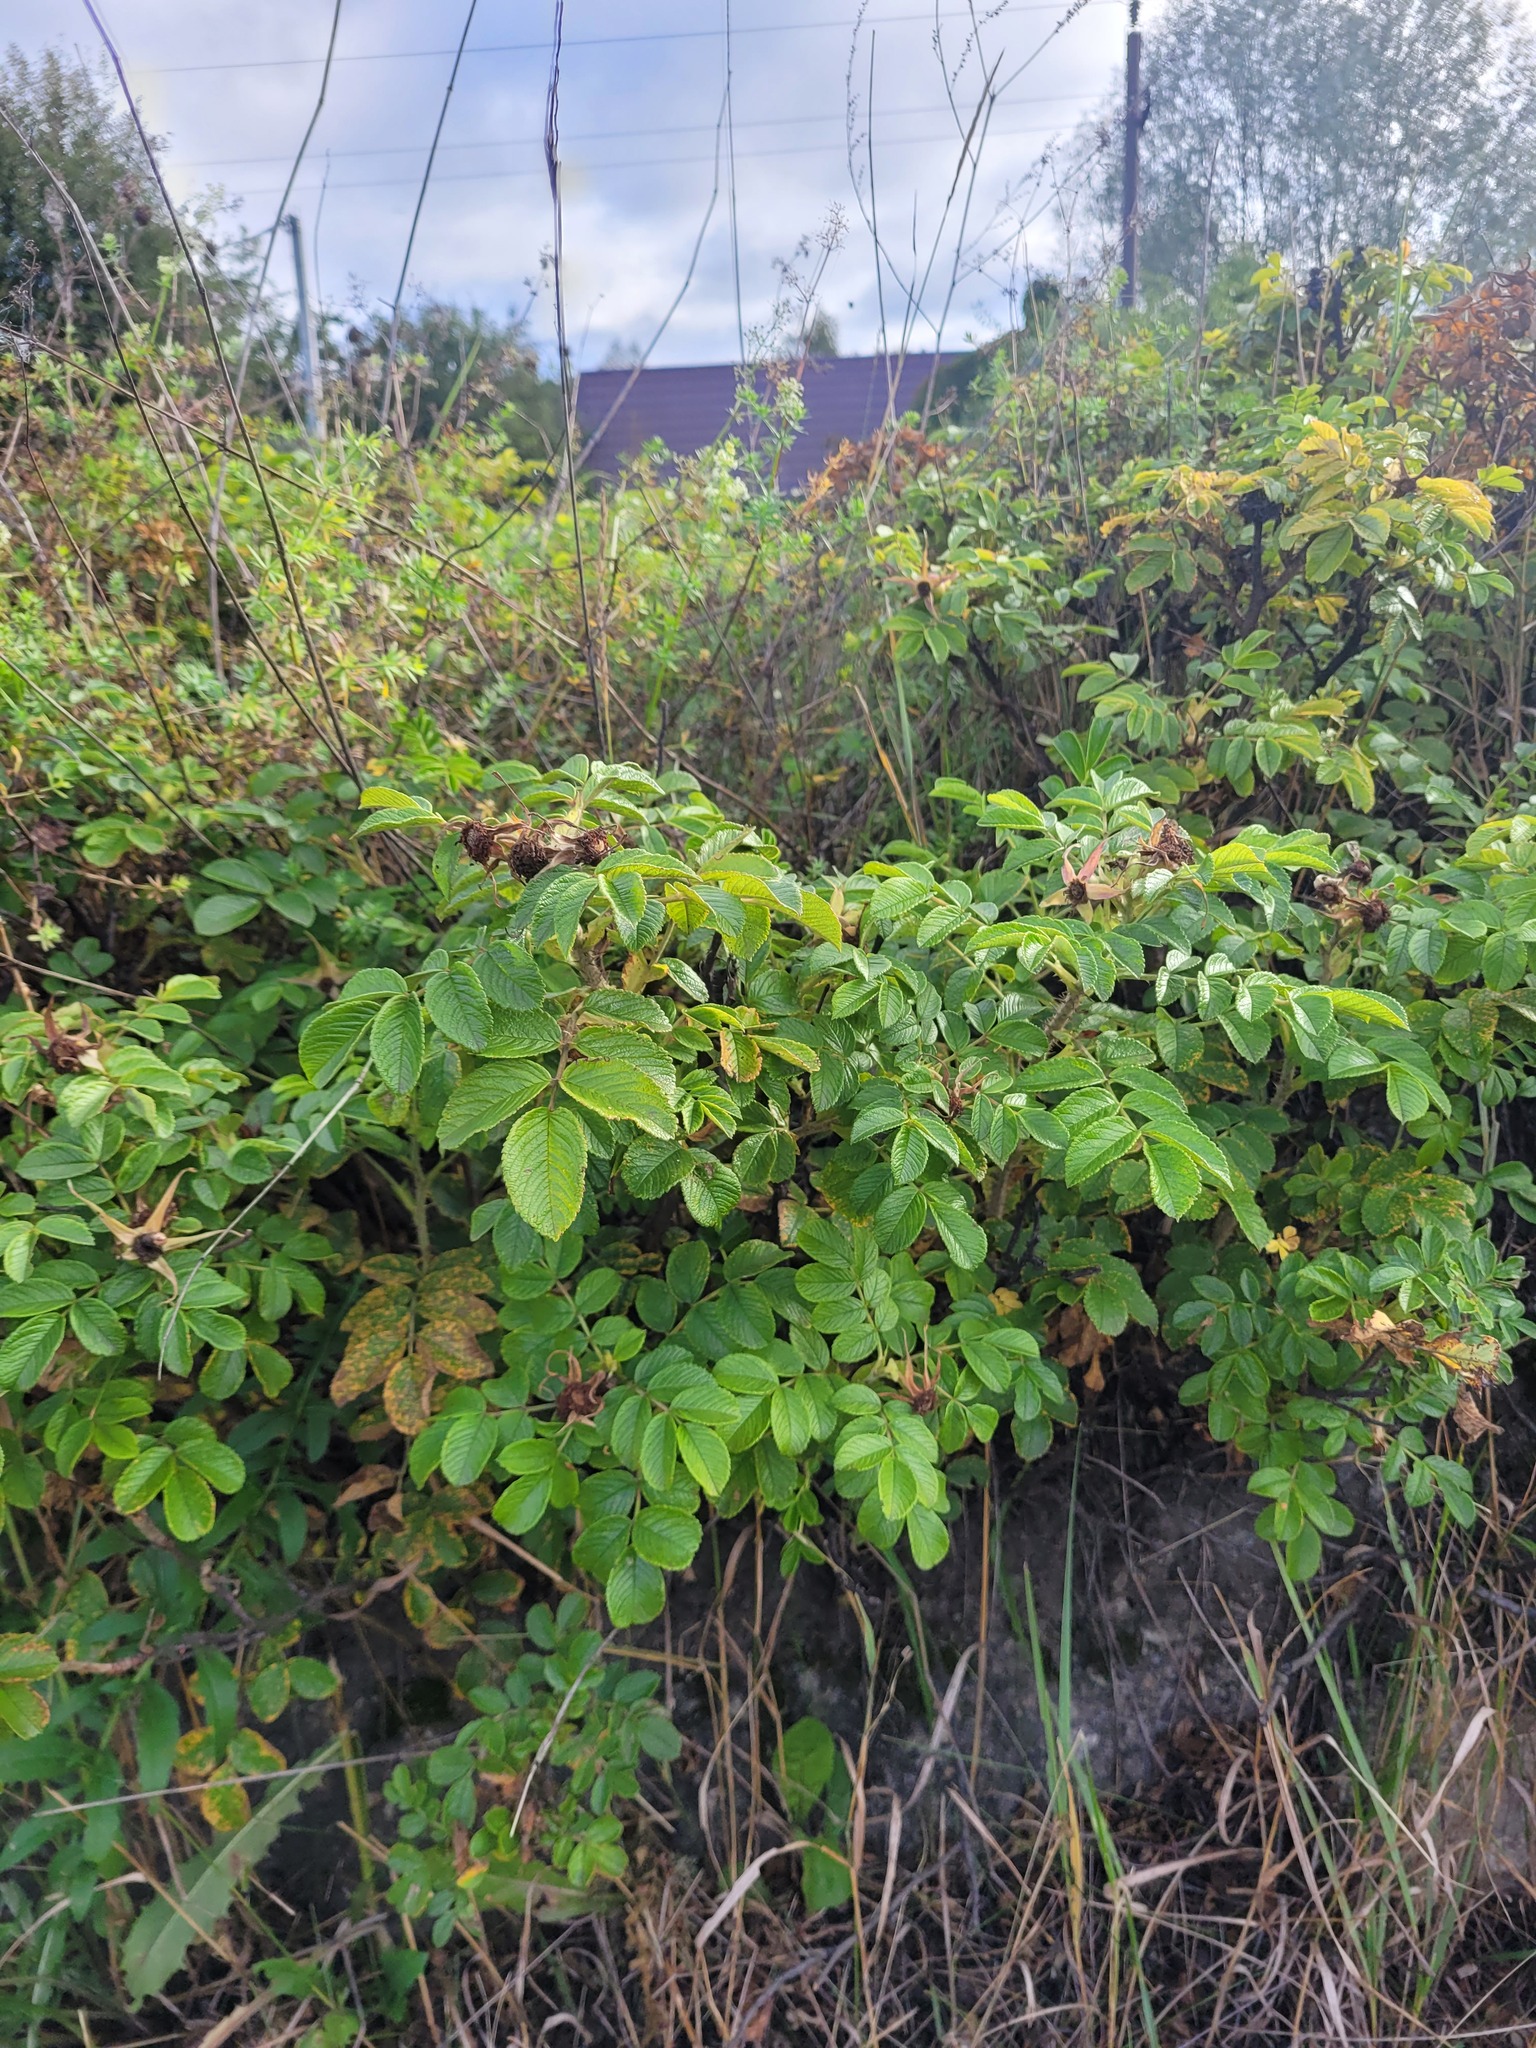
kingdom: Plantae
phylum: Tracheophyta
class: Magnoliopsida
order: Rosales
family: Rosaceae
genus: Rosa
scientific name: Rosa rugosa
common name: Japanese rose
